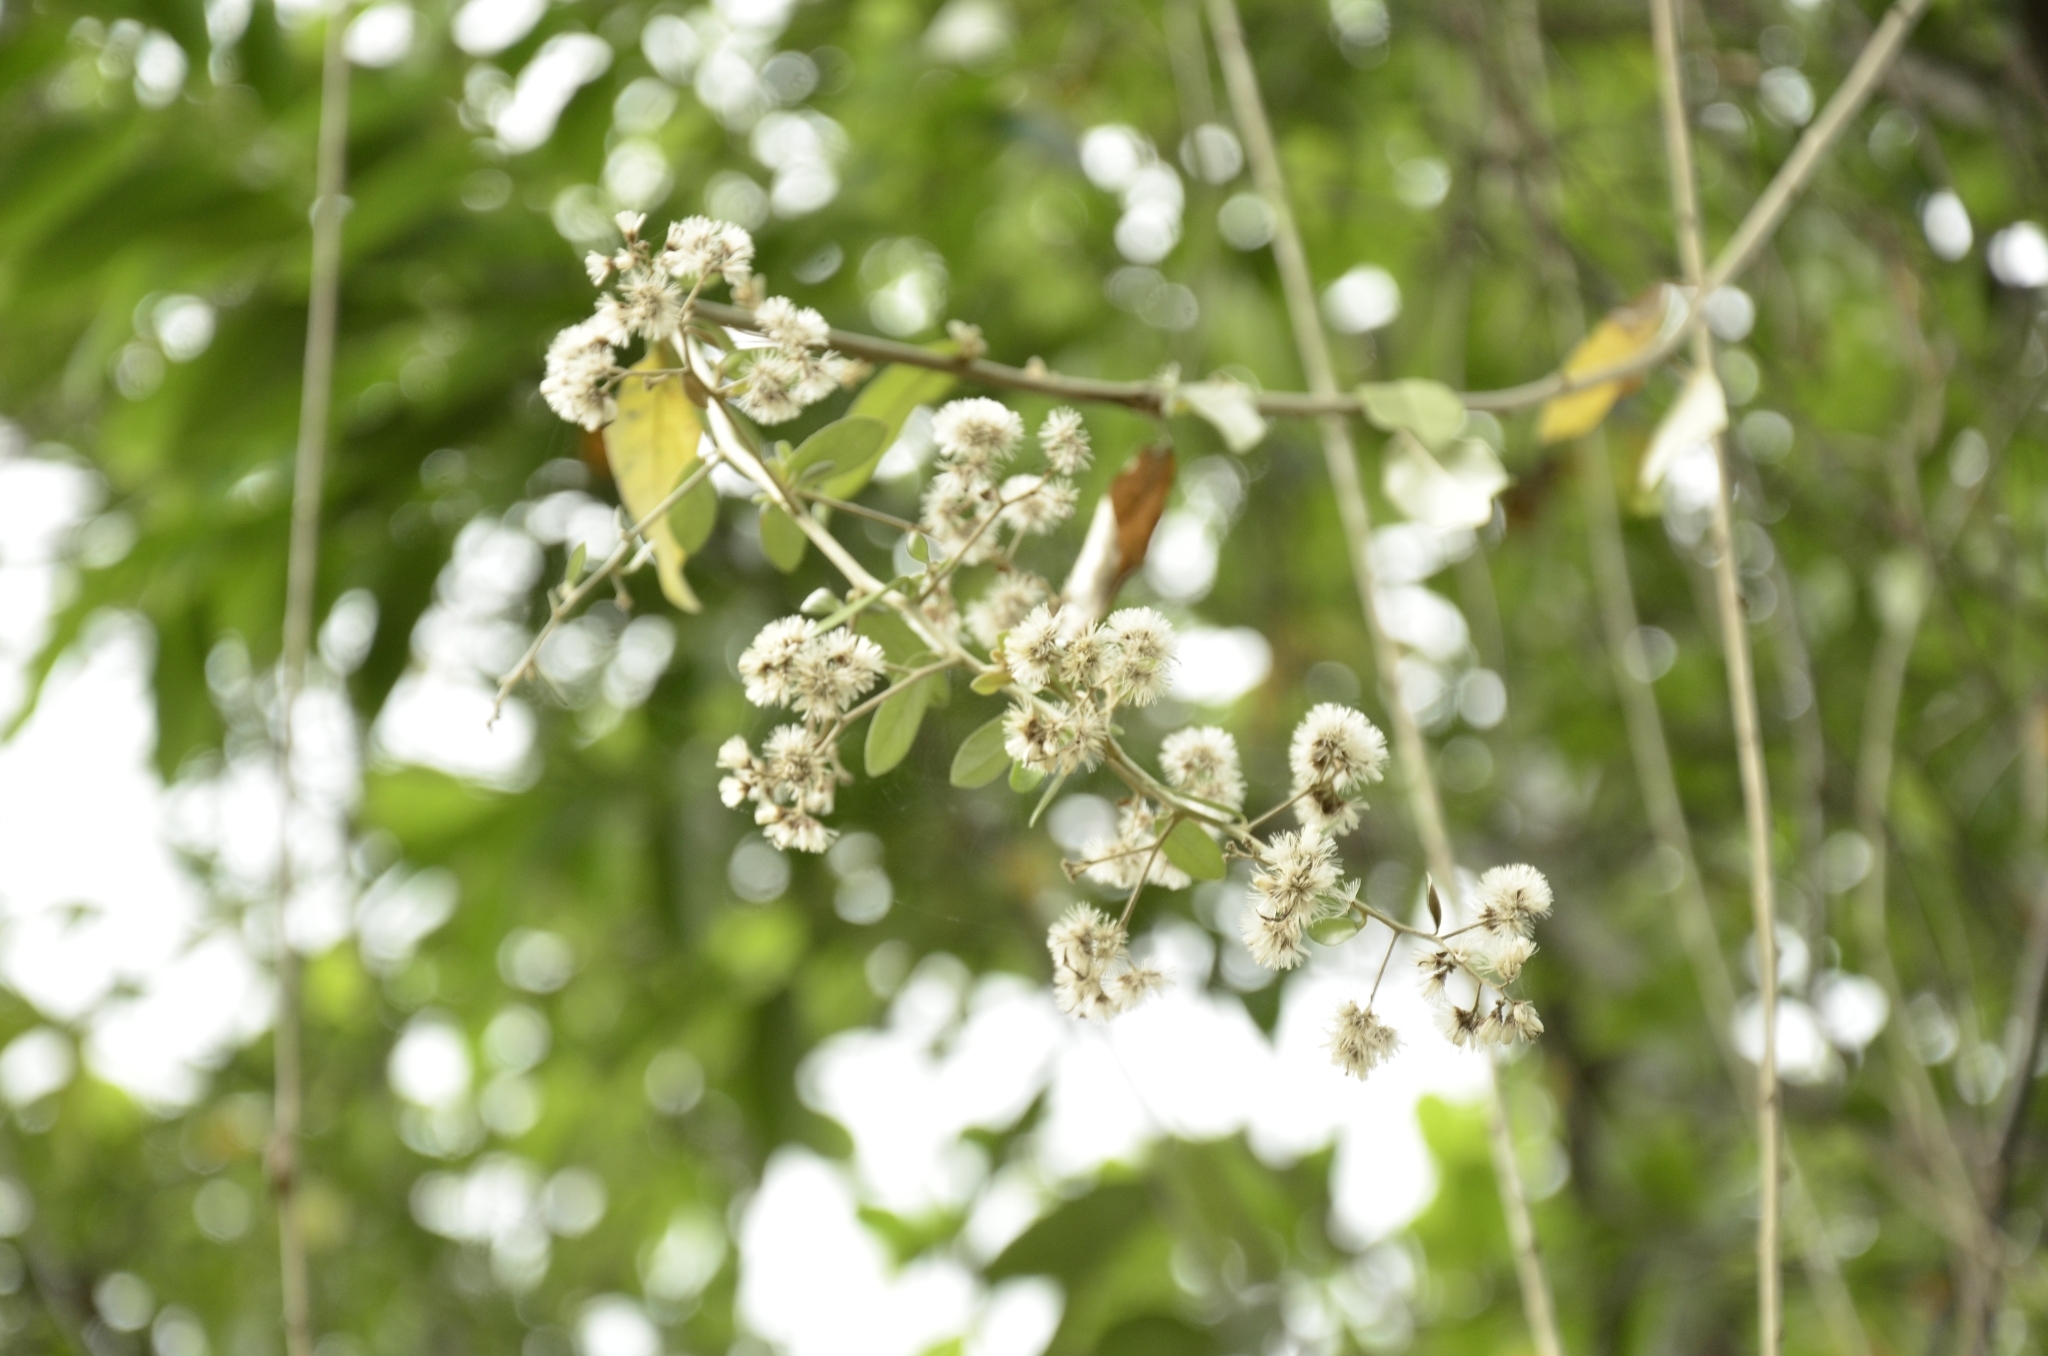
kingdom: Plantae
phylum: Tracheophyta
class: Magnoliopsida
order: Asterales
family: Asteraceae
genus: Tarlmounia
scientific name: Tarlmounia elliptica
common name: Kheua sa lot
